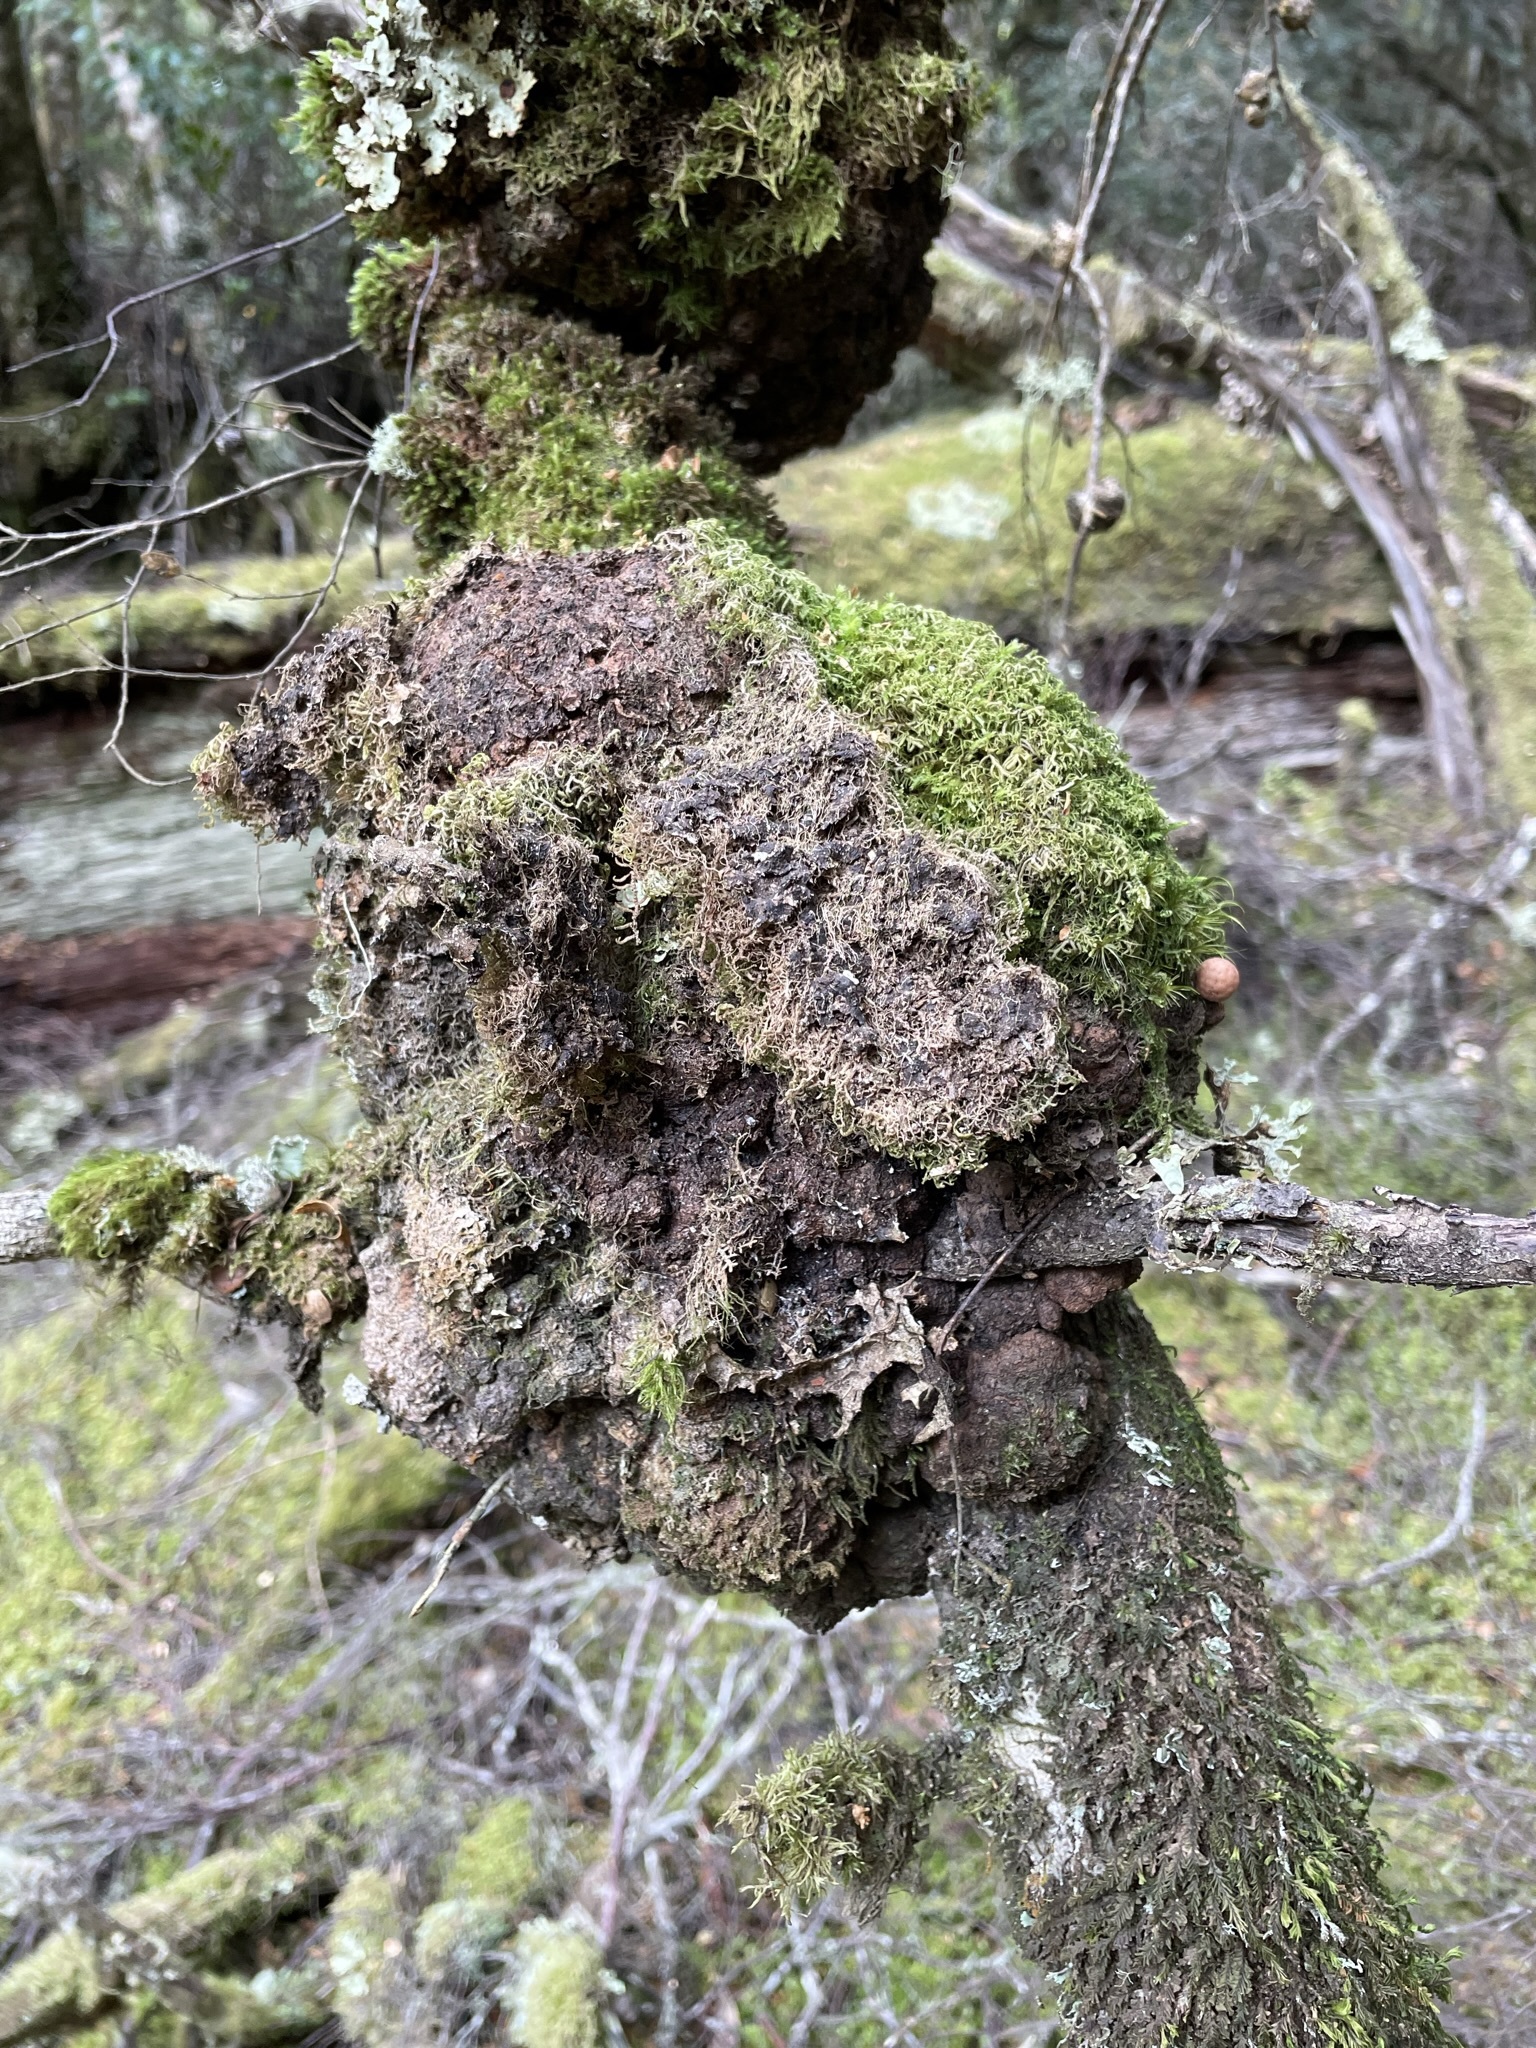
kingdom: Fungi
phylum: Ascomycota
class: Leotiomycetes
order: Cyttariales
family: Cyttariaceae
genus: Cyttaria
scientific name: Cyttaria gunnii
